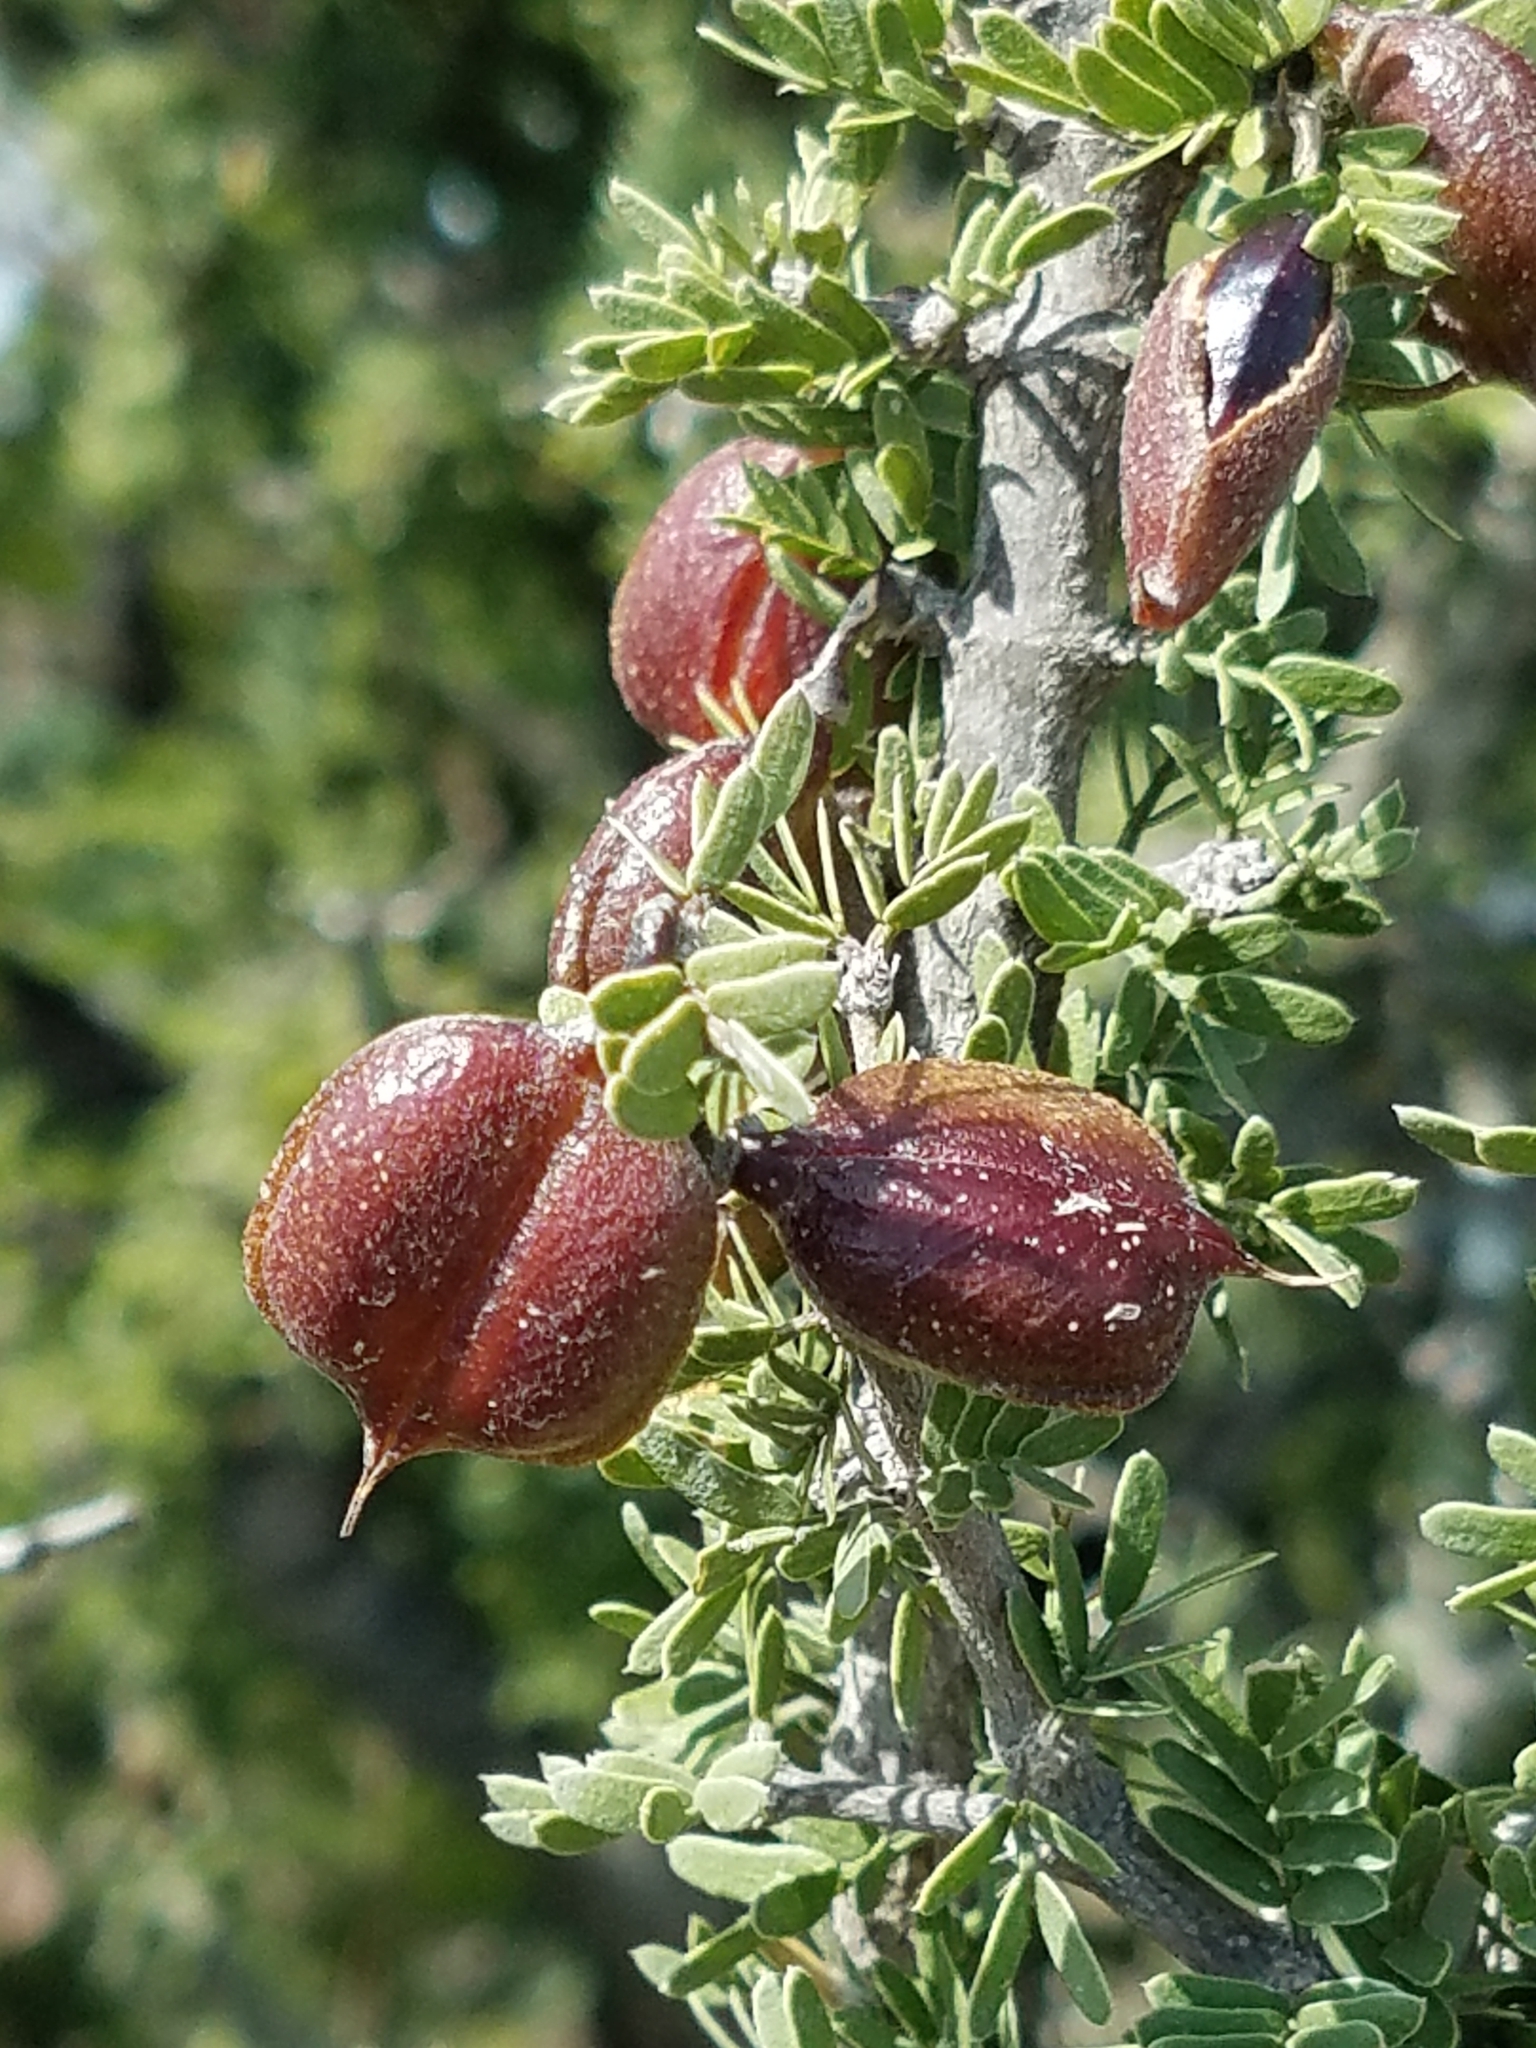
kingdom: Plantae
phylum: Tracheophyta
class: Magnoliopsida
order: Zygophyllales
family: Zygophyllaceae
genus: Porlieria
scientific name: Porlieria angustifolia
